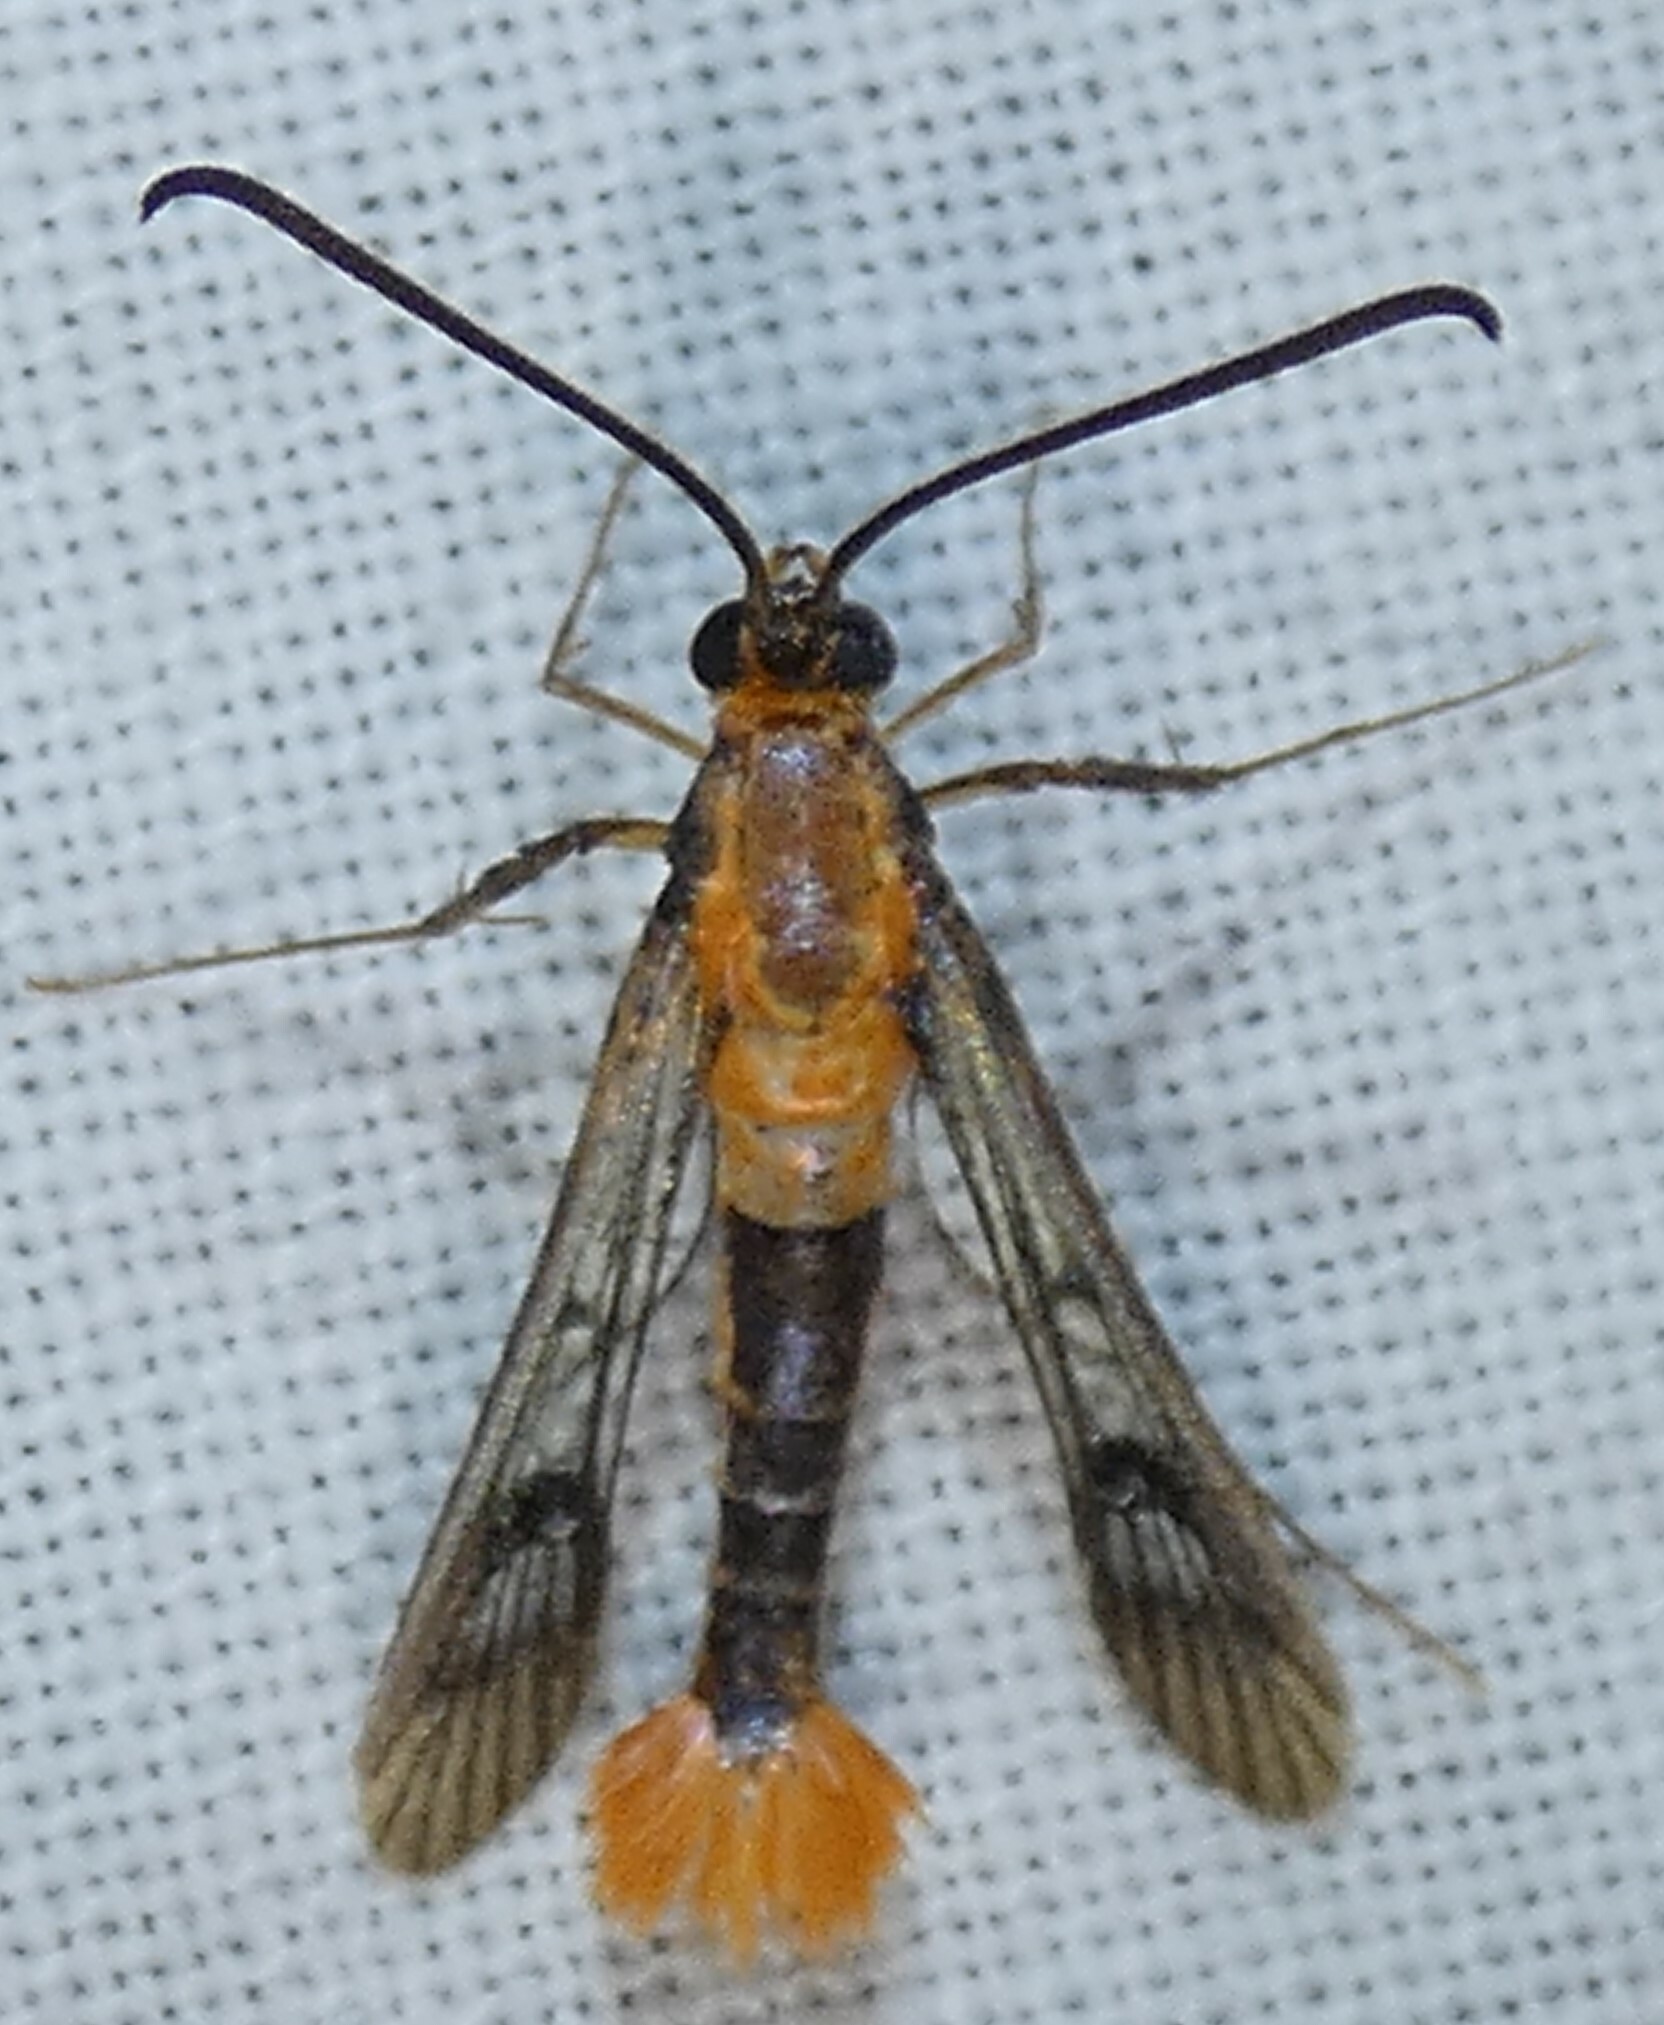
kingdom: Animalia
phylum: Arthropoda
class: Insecta
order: Lepidoptera
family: Sesiidae
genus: Synanthedon
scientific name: Synanthedon acerni
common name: Maple callus borer moth
